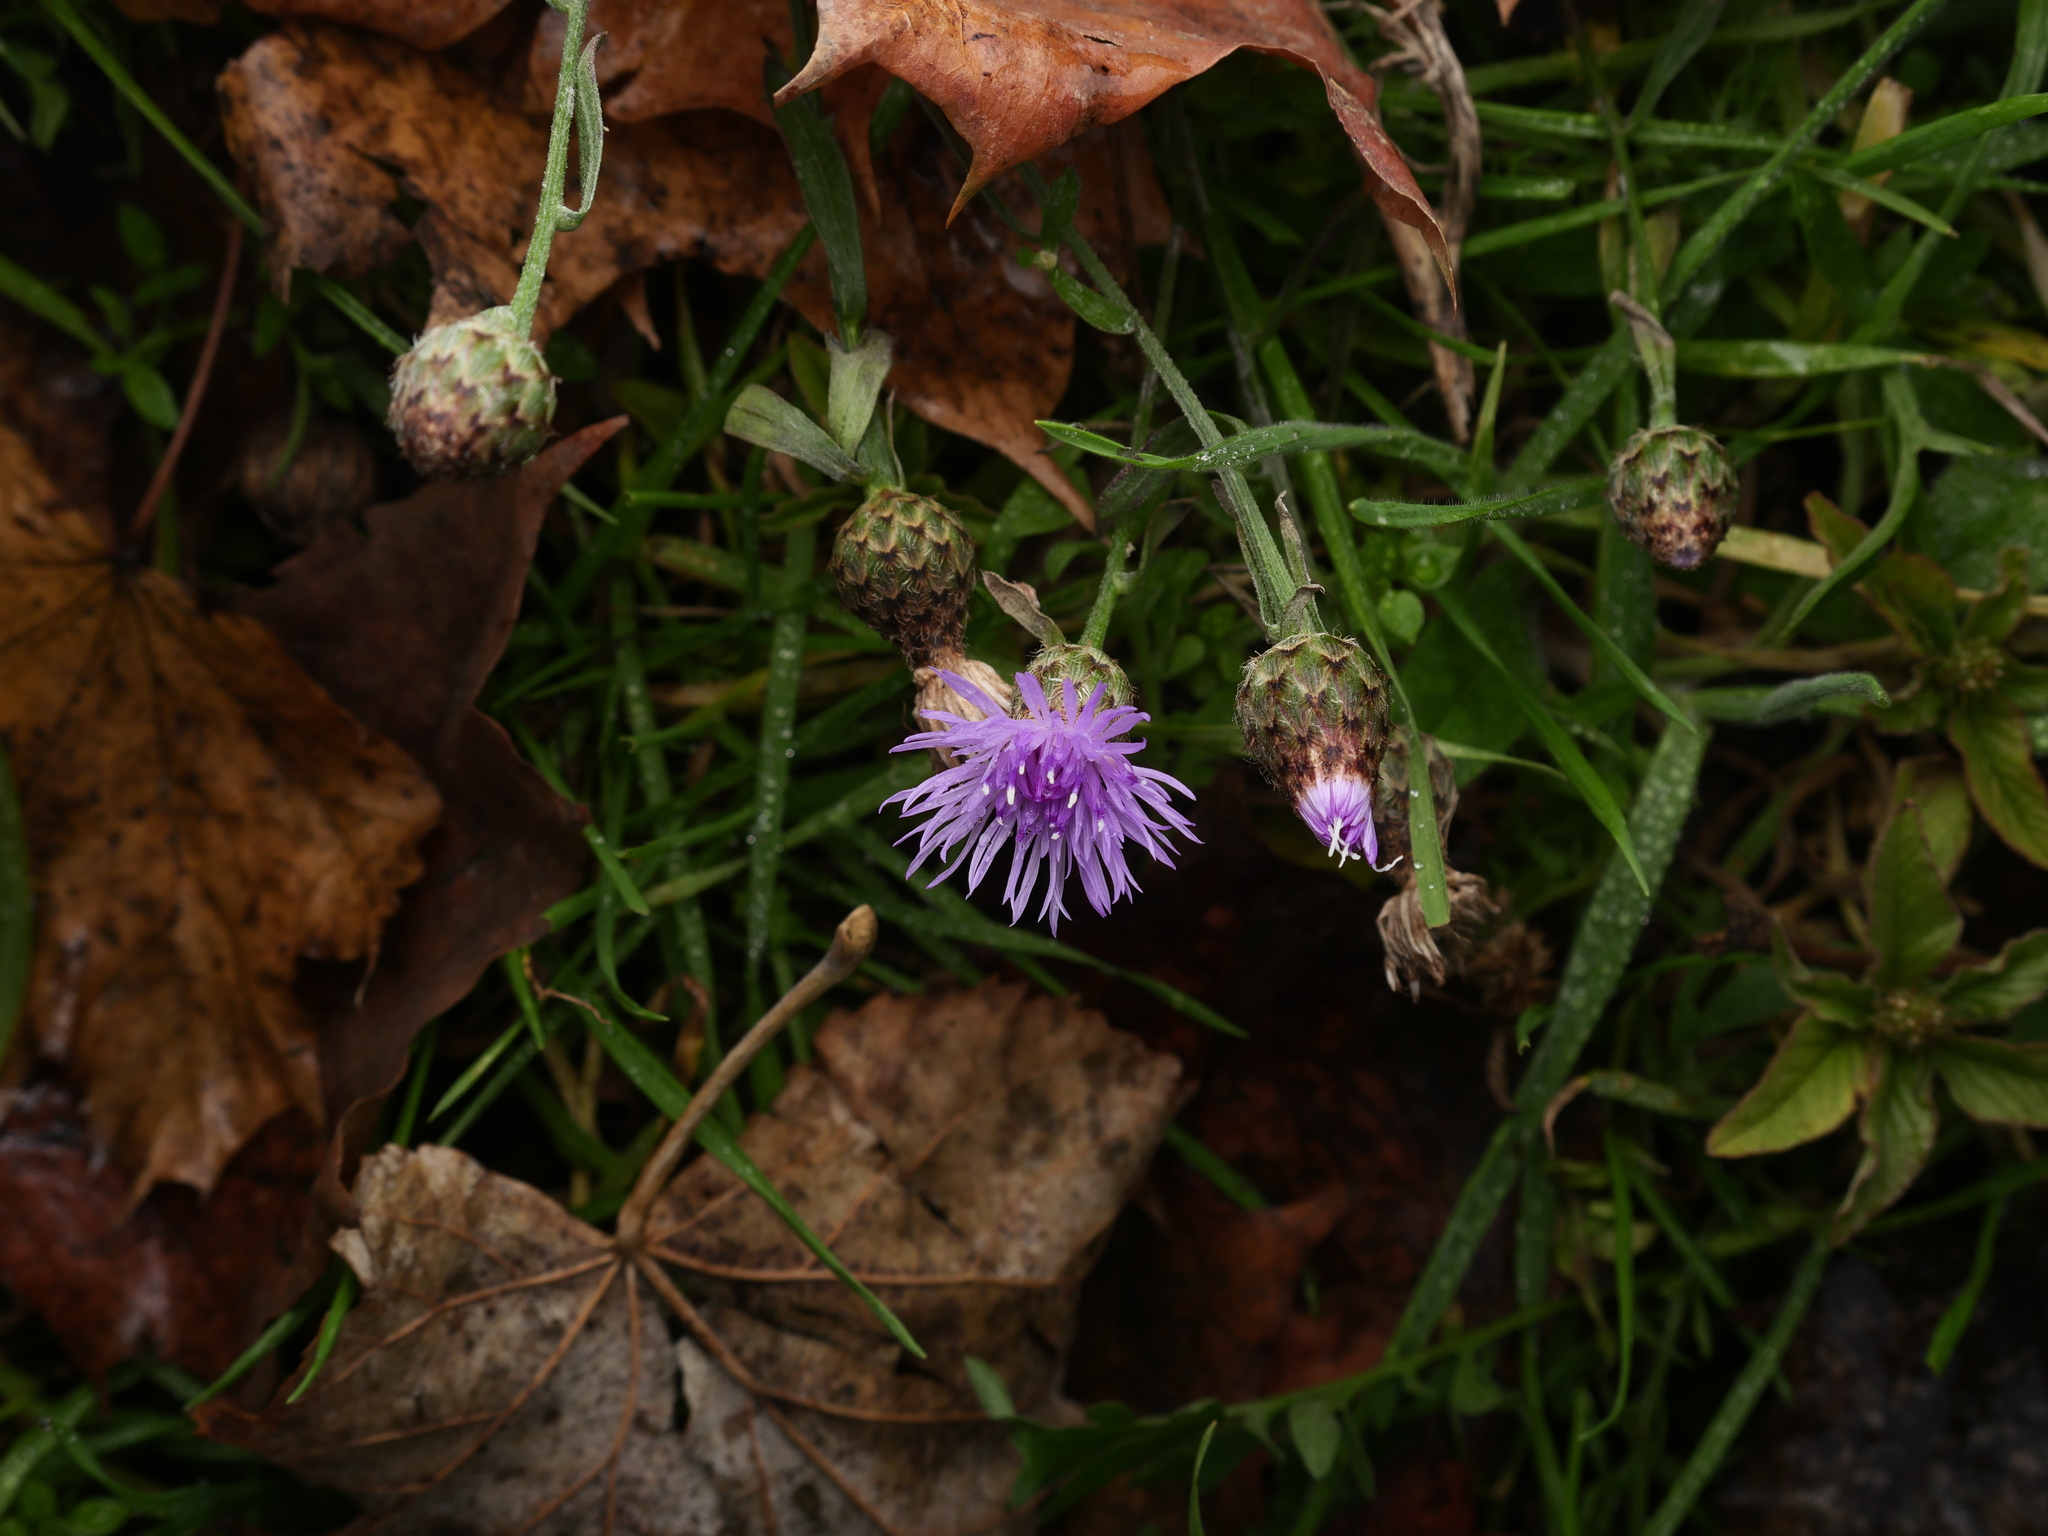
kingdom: Plantae
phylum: Tracheophyta
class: Magnoliopsida
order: Asterales
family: Asteraceae
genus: Centaurea
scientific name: Centaurea stoebe
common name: Spotted knapweed
